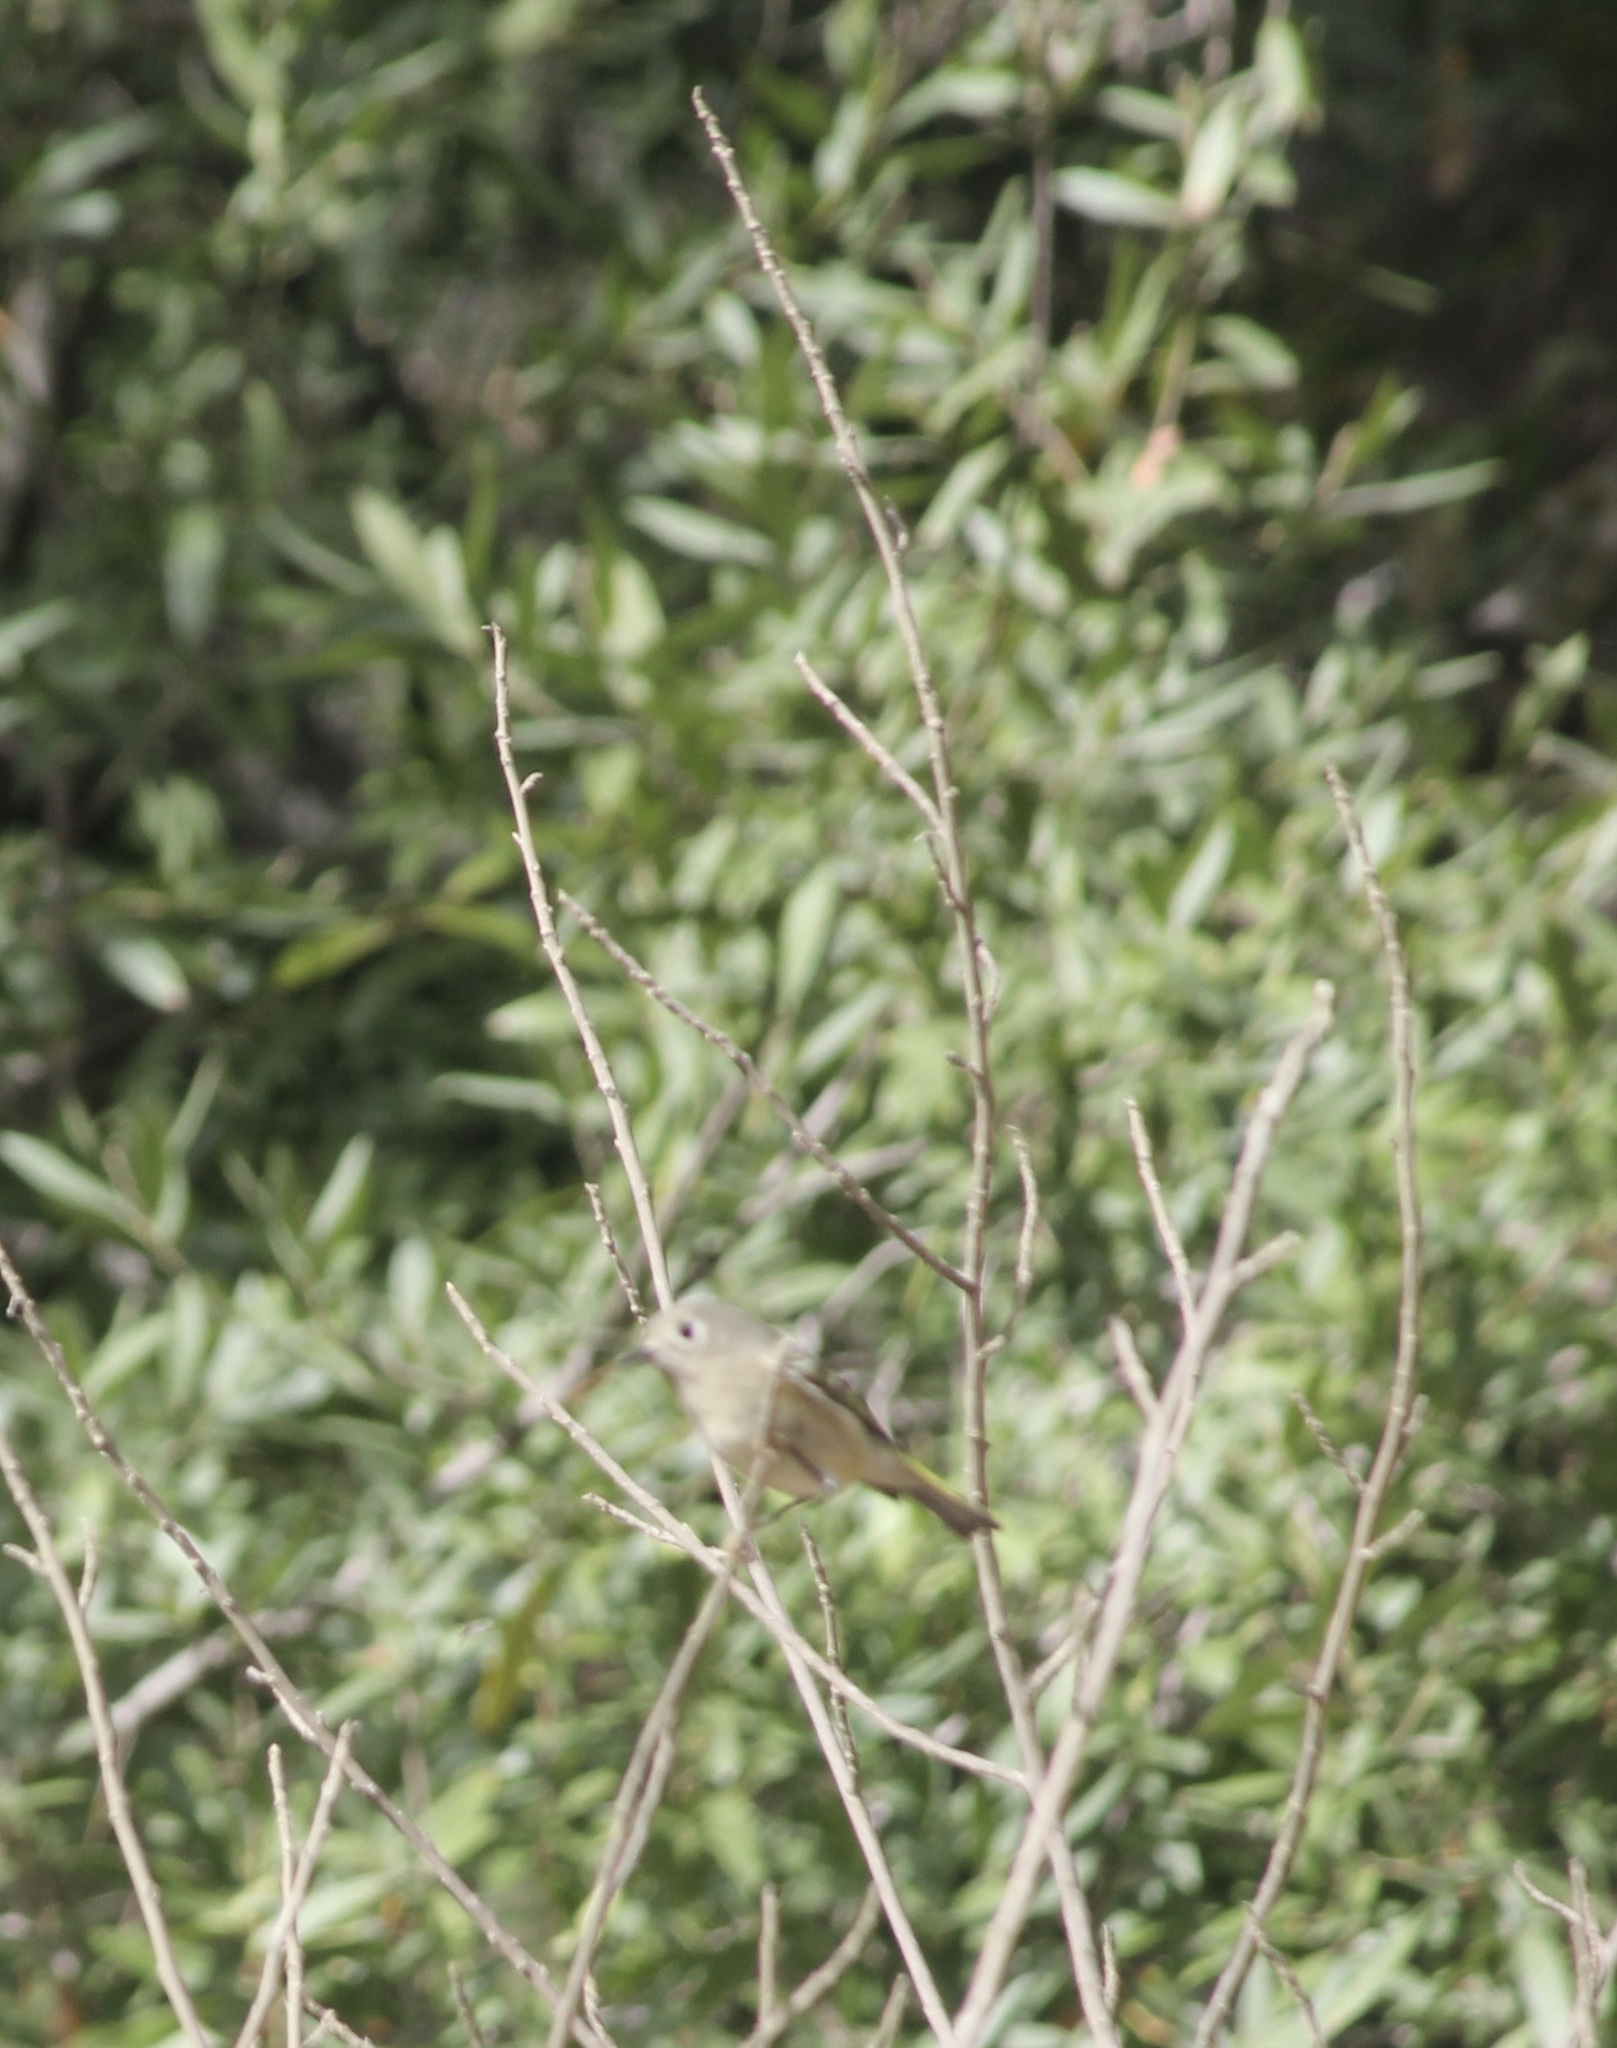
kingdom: Animalia
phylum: Chordata
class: Aves
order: Passeriformes
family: Regulidae
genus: Regulus
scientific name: Regulus calendula
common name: Ruby-crowned kinglet
